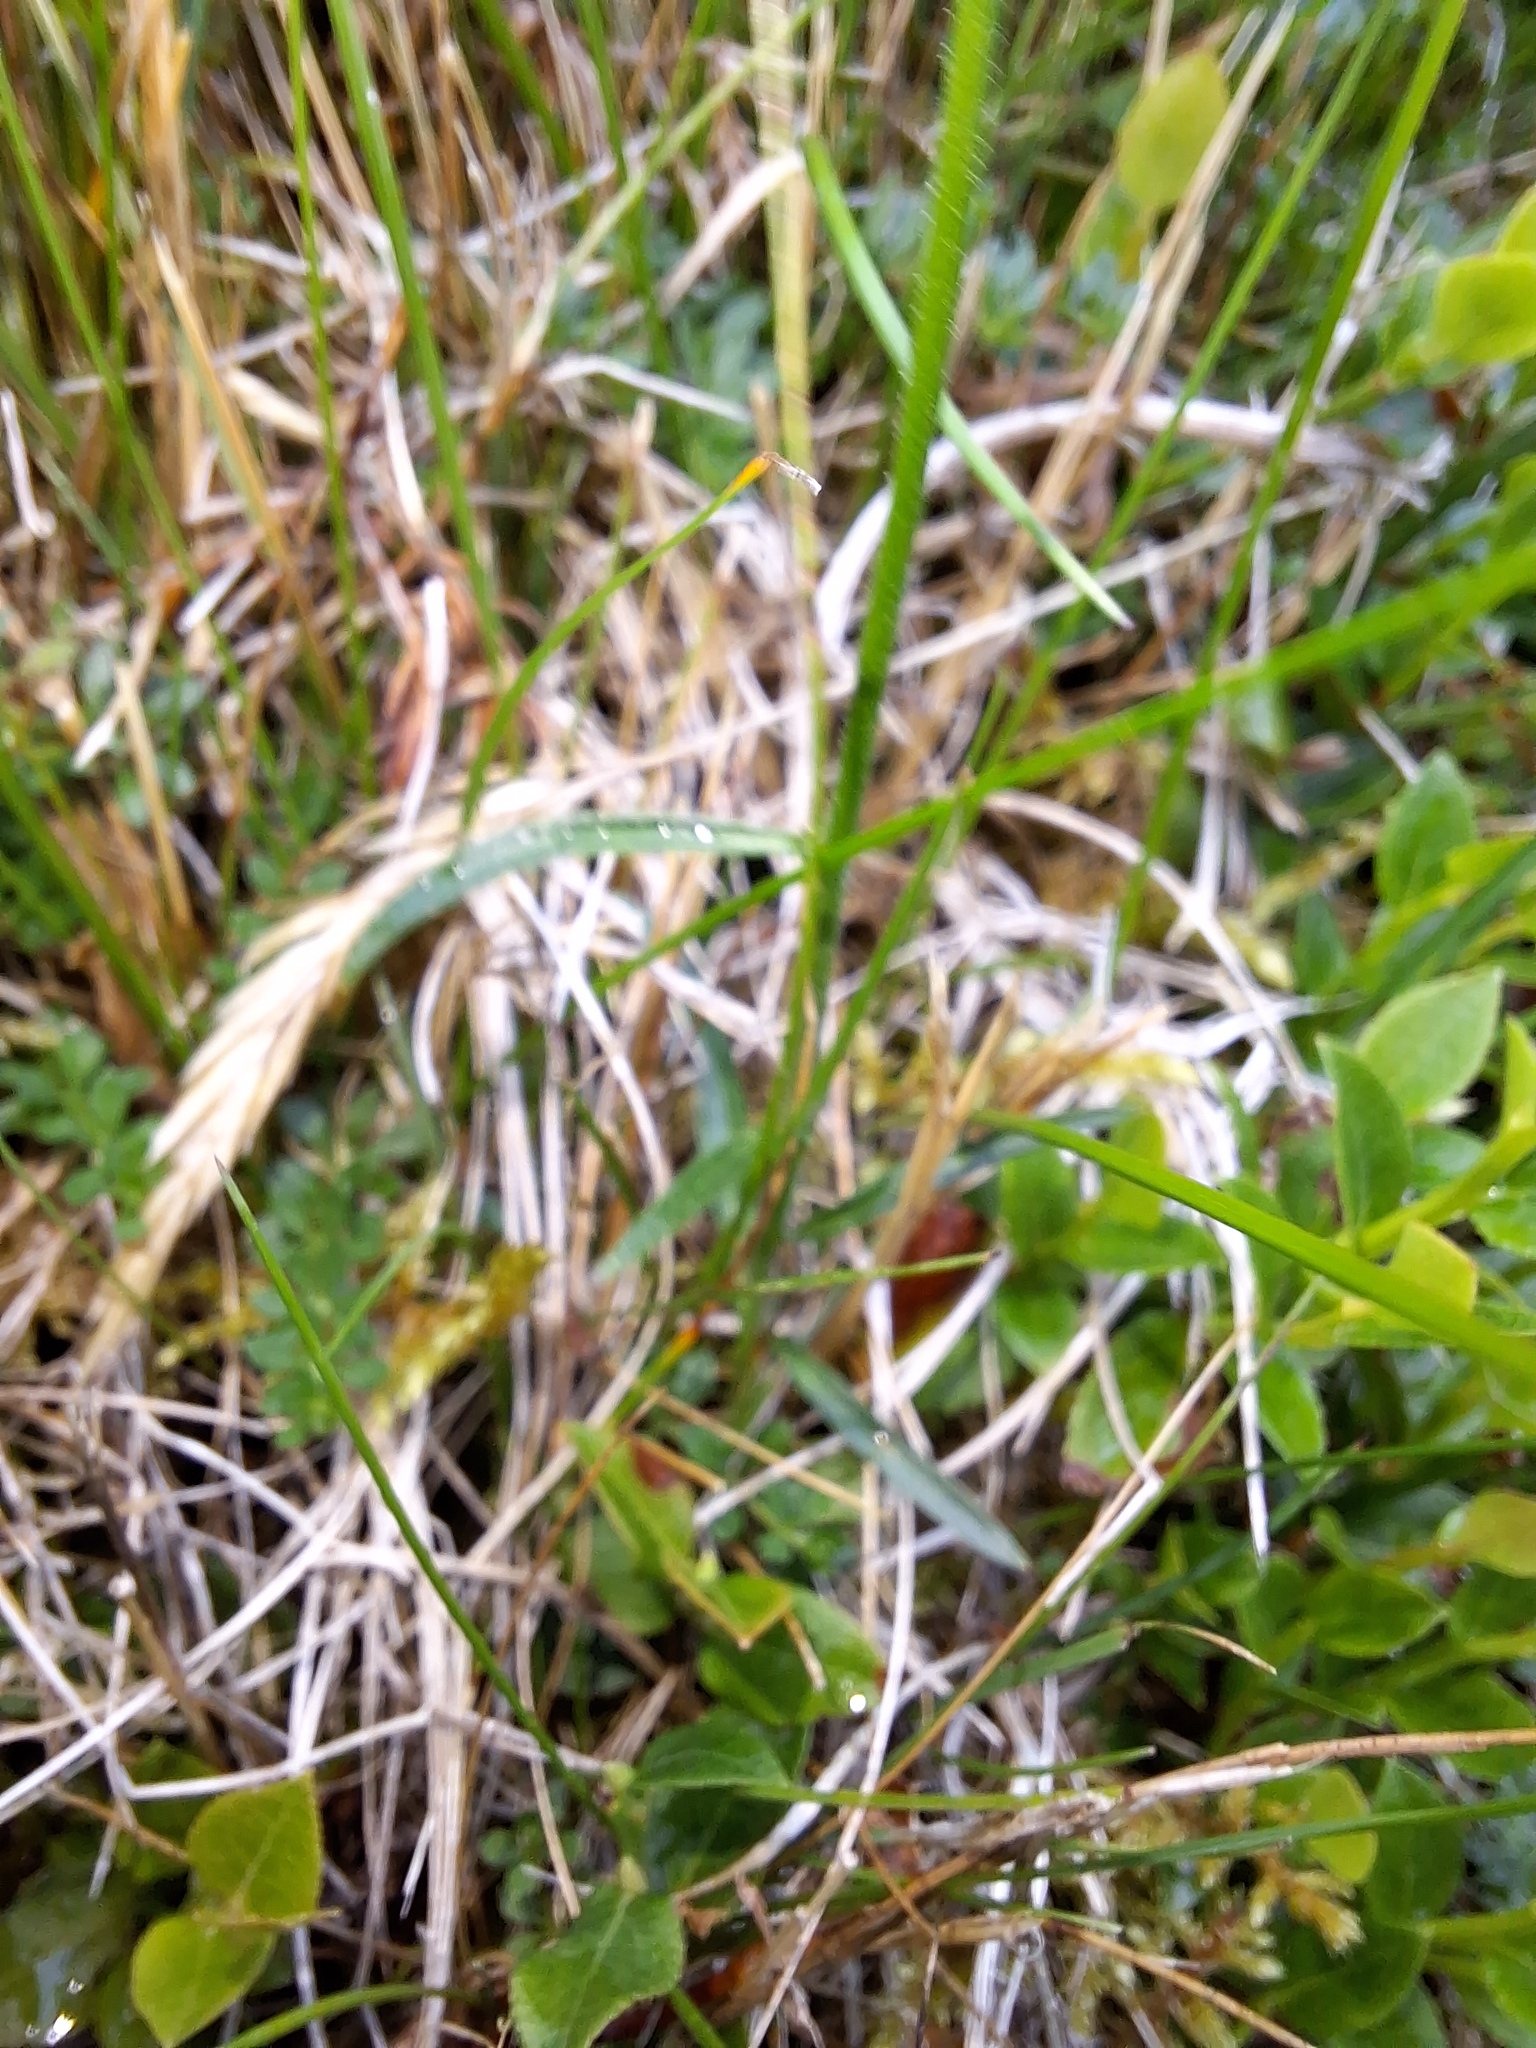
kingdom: Plantae
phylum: Tracheophyta
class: Magnoliopsida
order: Asterales
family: Campanulaceae
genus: Campanula
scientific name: Campanula rotundifolia
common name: Harebell
